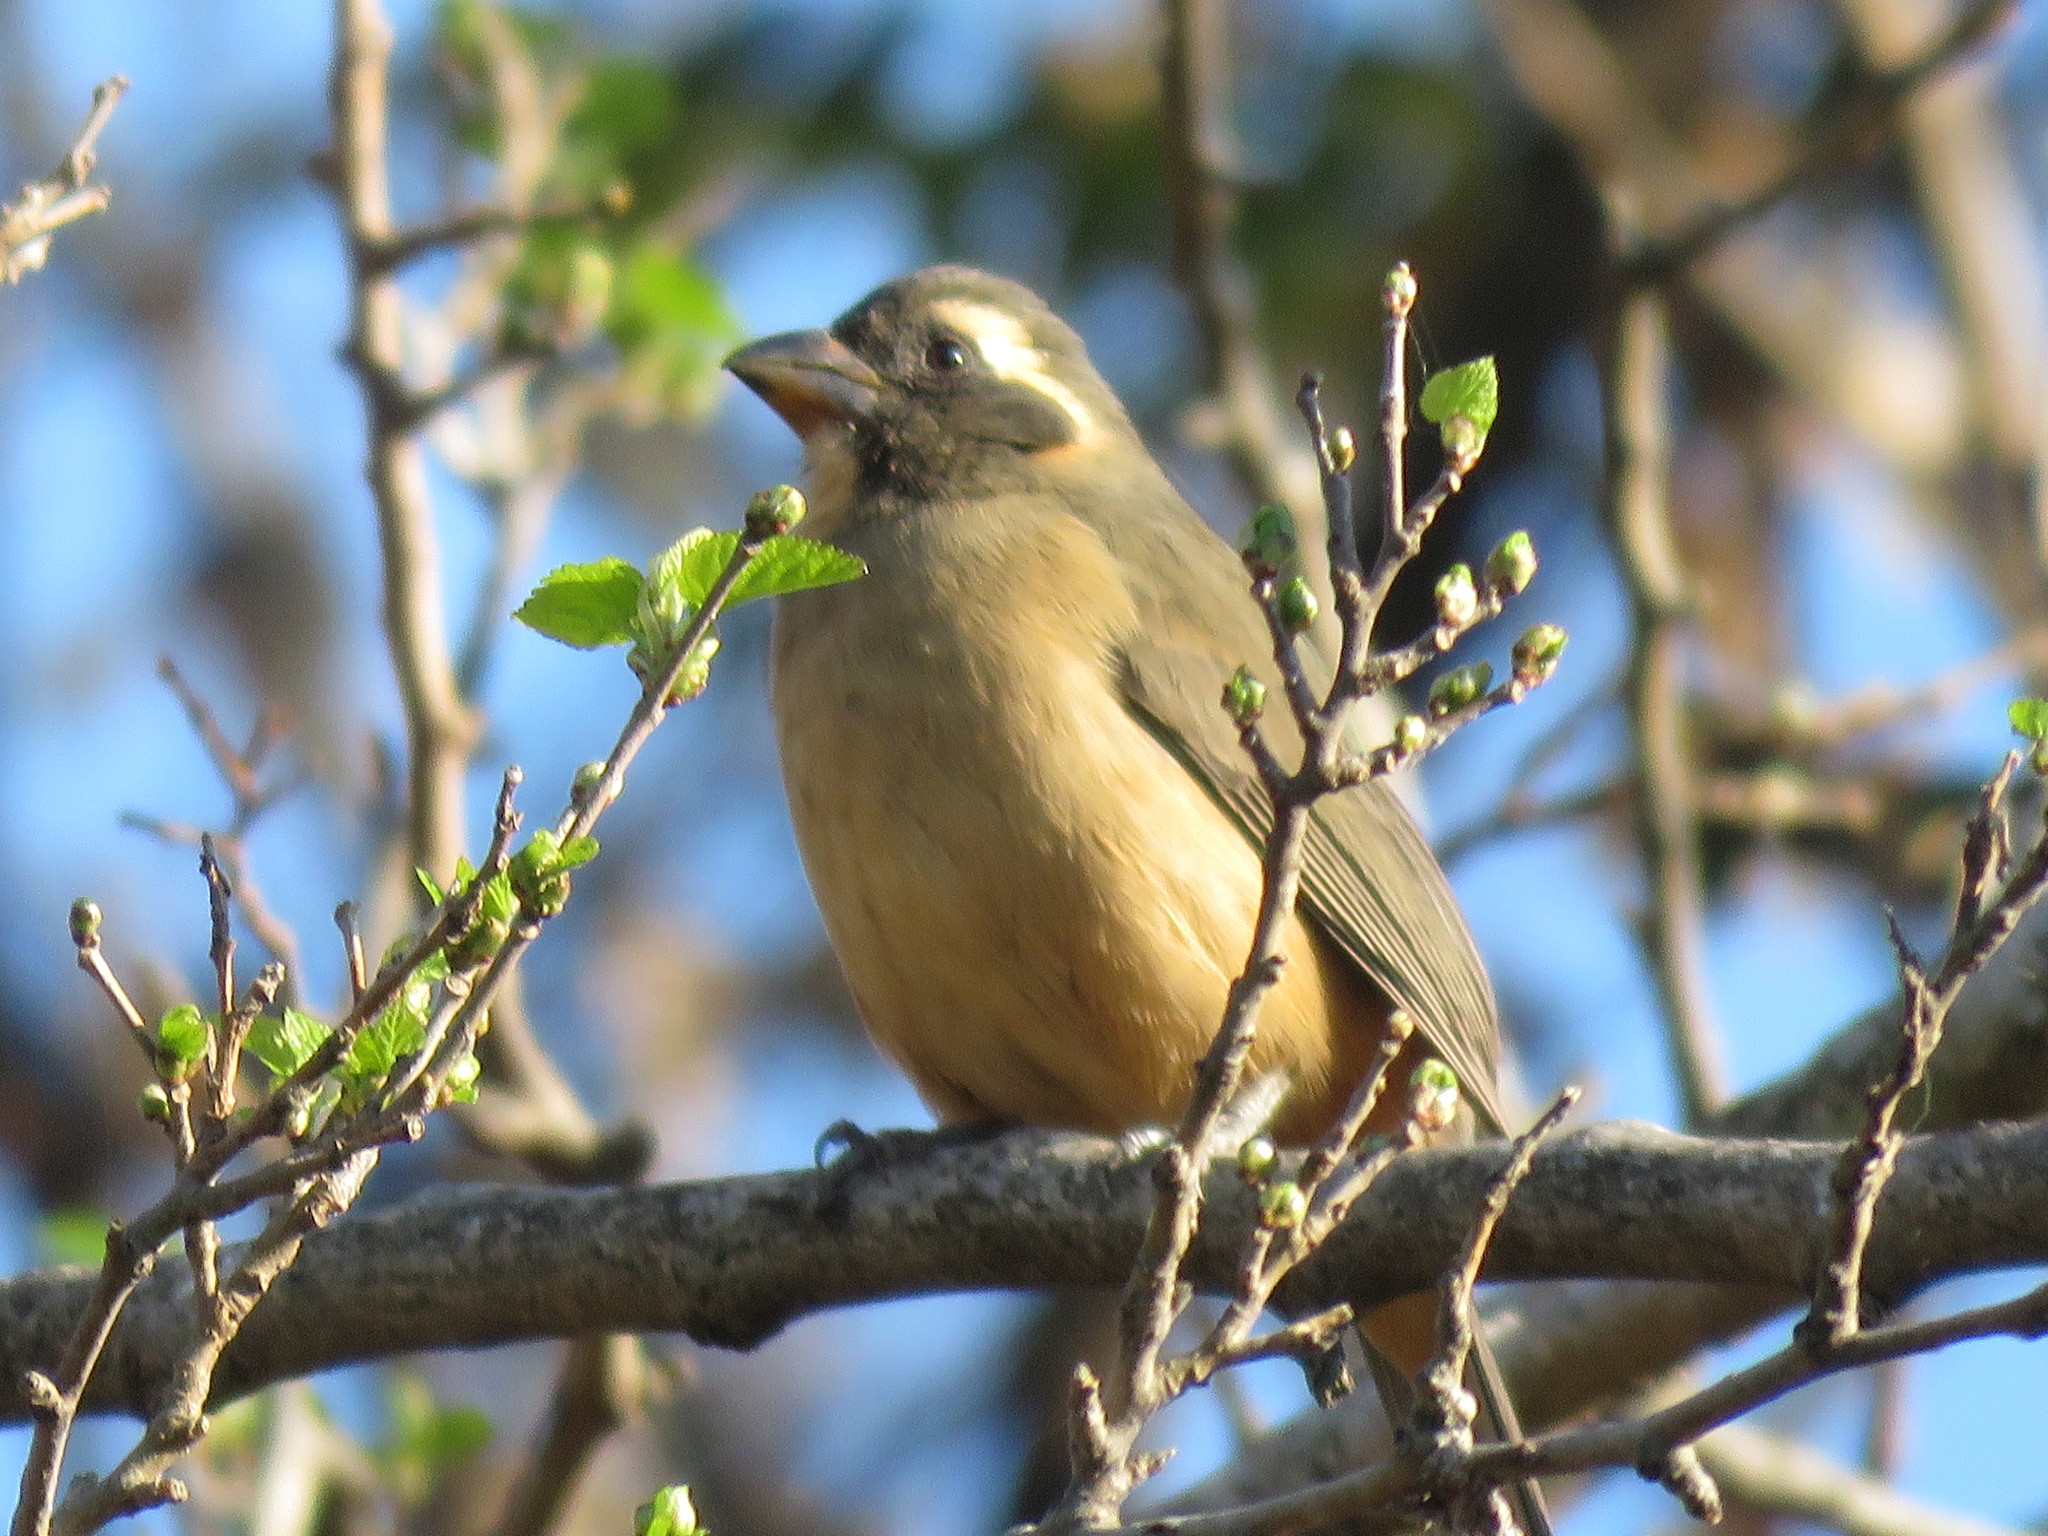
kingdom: Animalia
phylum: Chordata
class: Aves
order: Passeriformes
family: Thraupidae
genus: Saltator
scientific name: Saltator aurantiirostris
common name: Golden-billed saltator
